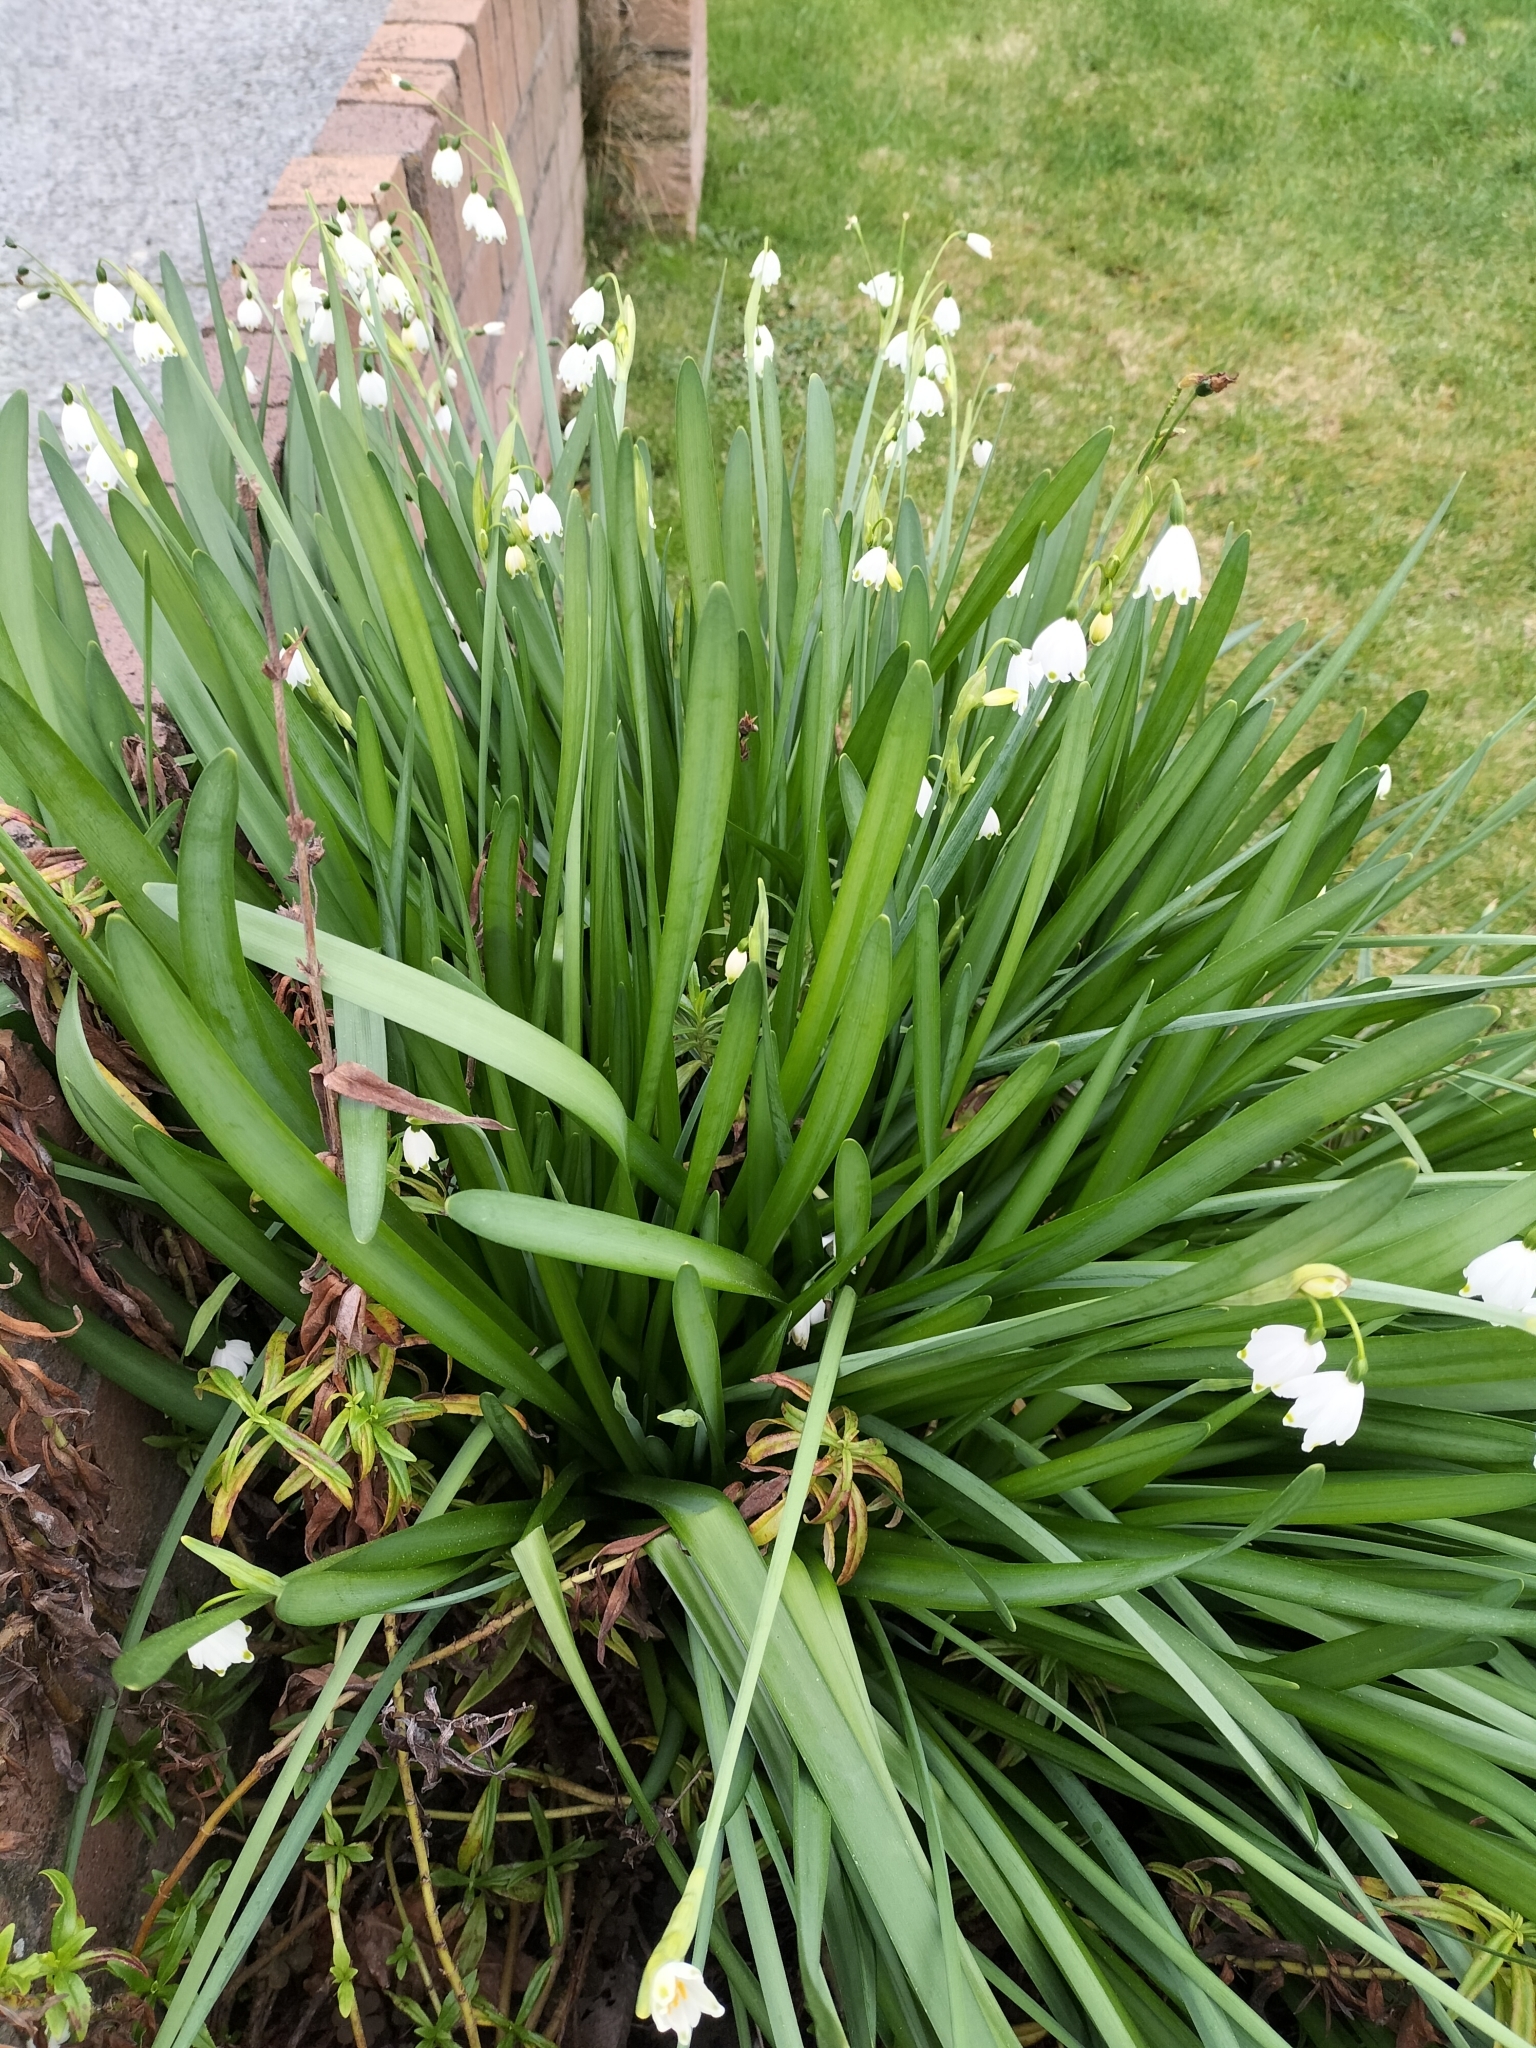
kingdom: Plantae
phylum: Tracheophyta
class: Liliopsida
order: Asparagales
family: Amaryllidaceae
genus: Leucojum
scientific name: Leucojum aestivum
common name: Summer snowflake
